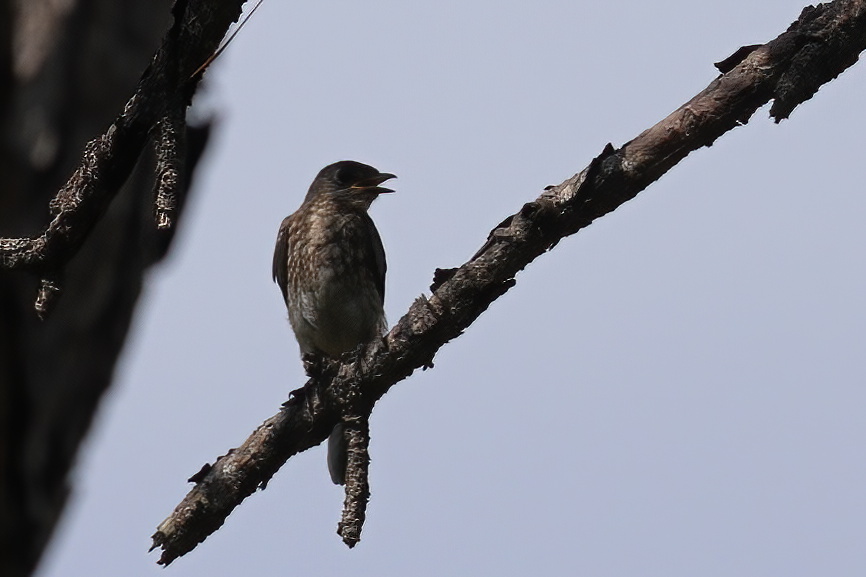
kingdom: Animalia
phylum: Chordata
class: Aves
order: Passeriformes
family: Turdidae
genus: Sialia
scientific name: Sialia sialis
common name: Eastern bluebird
